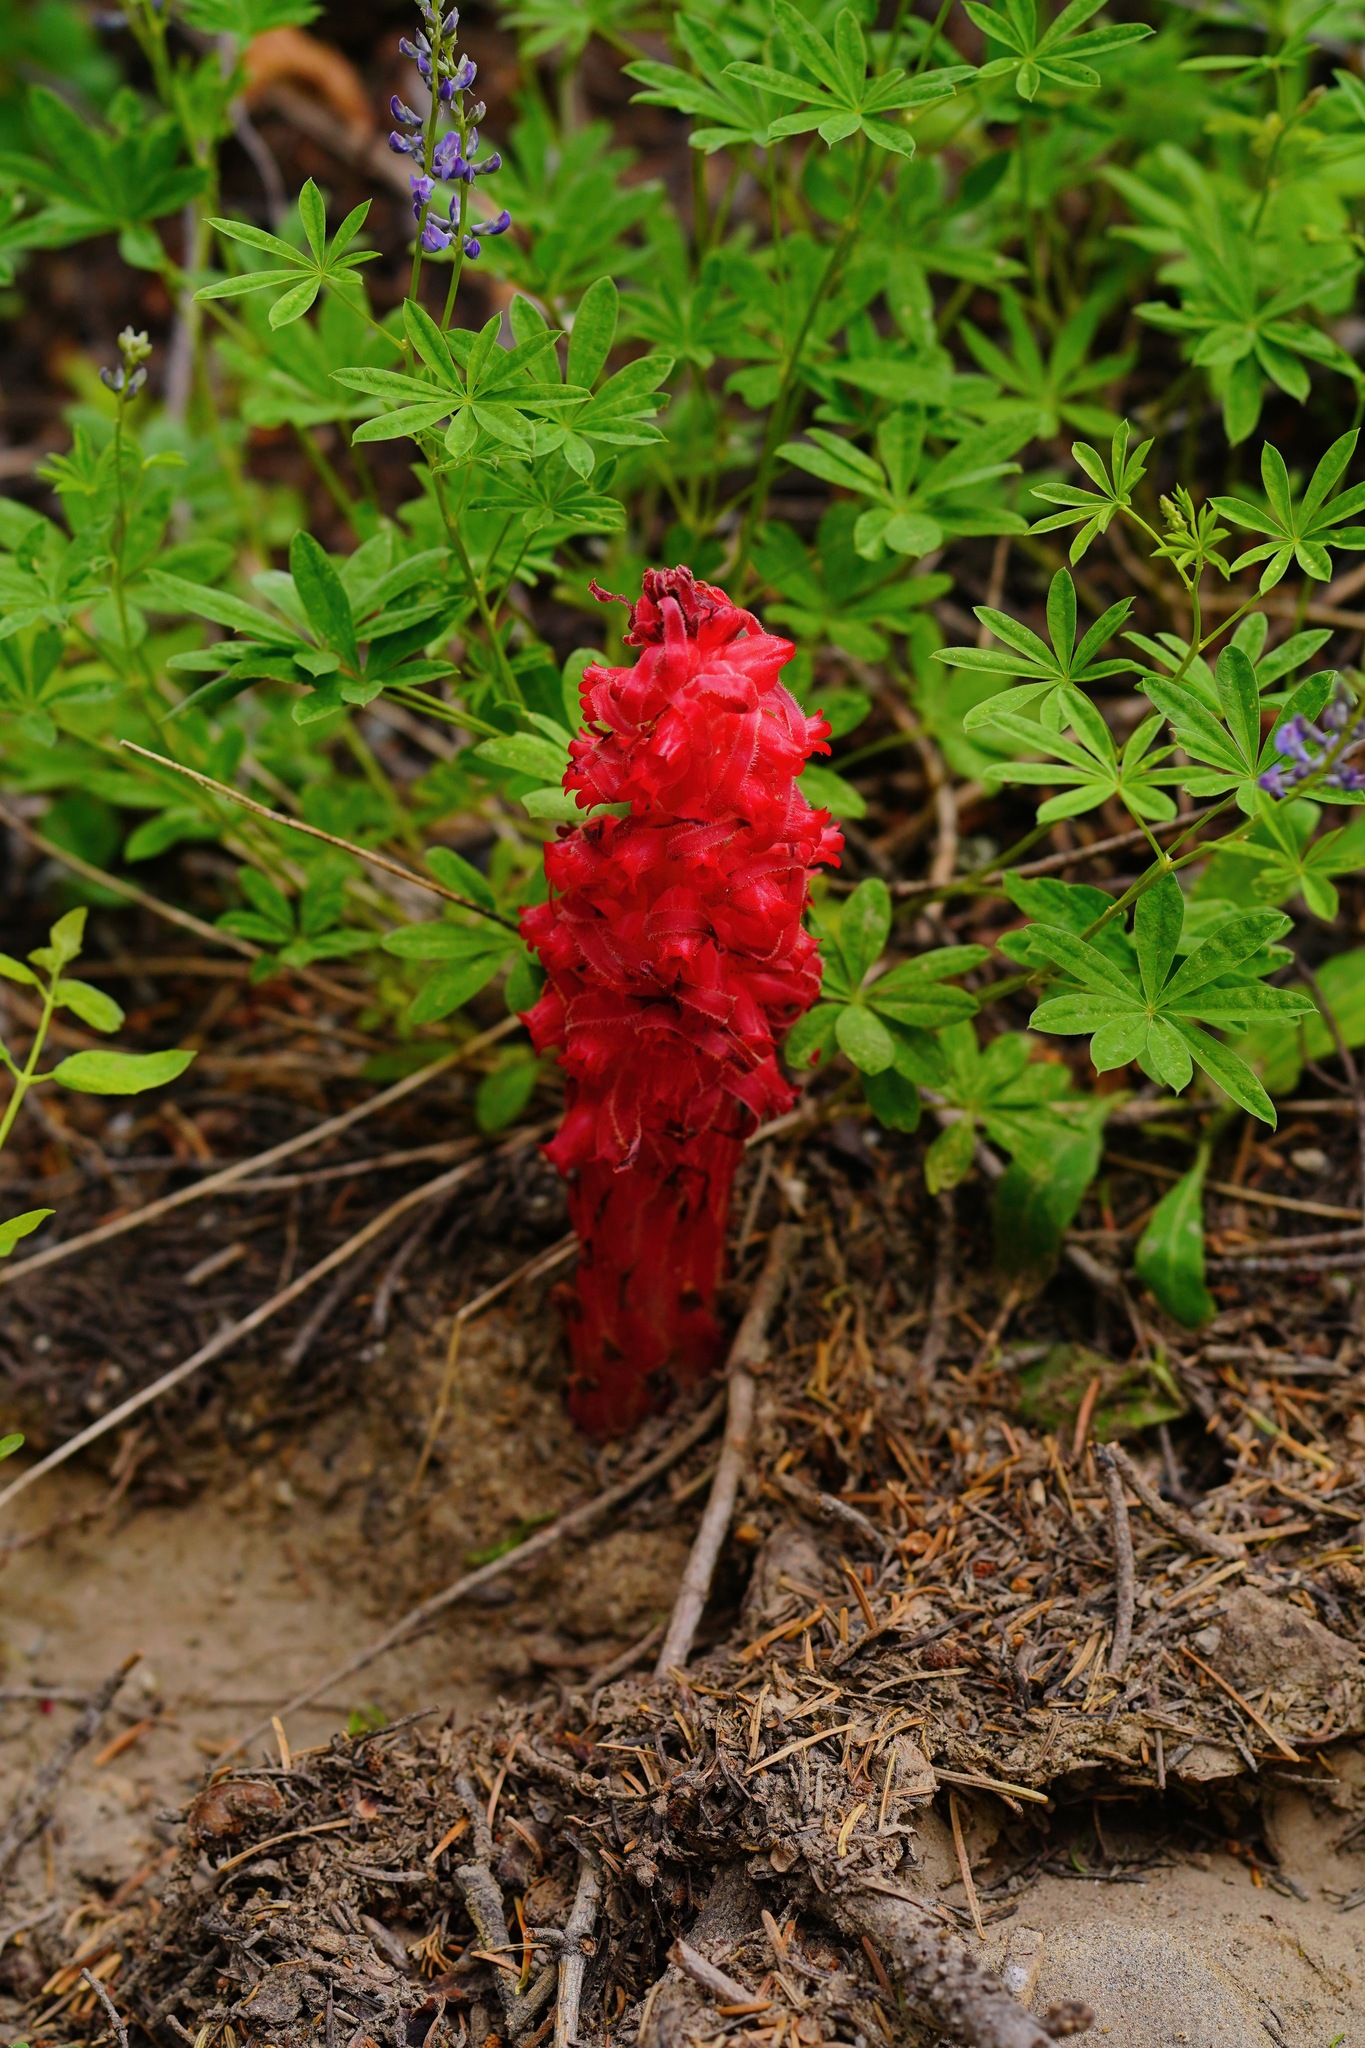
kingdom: Plantae
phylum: Tracheophyta
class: Magnoliopsida
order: Ericales
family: Ericaceae
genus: Sarcodes
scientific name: Sarcodes sanguinea
